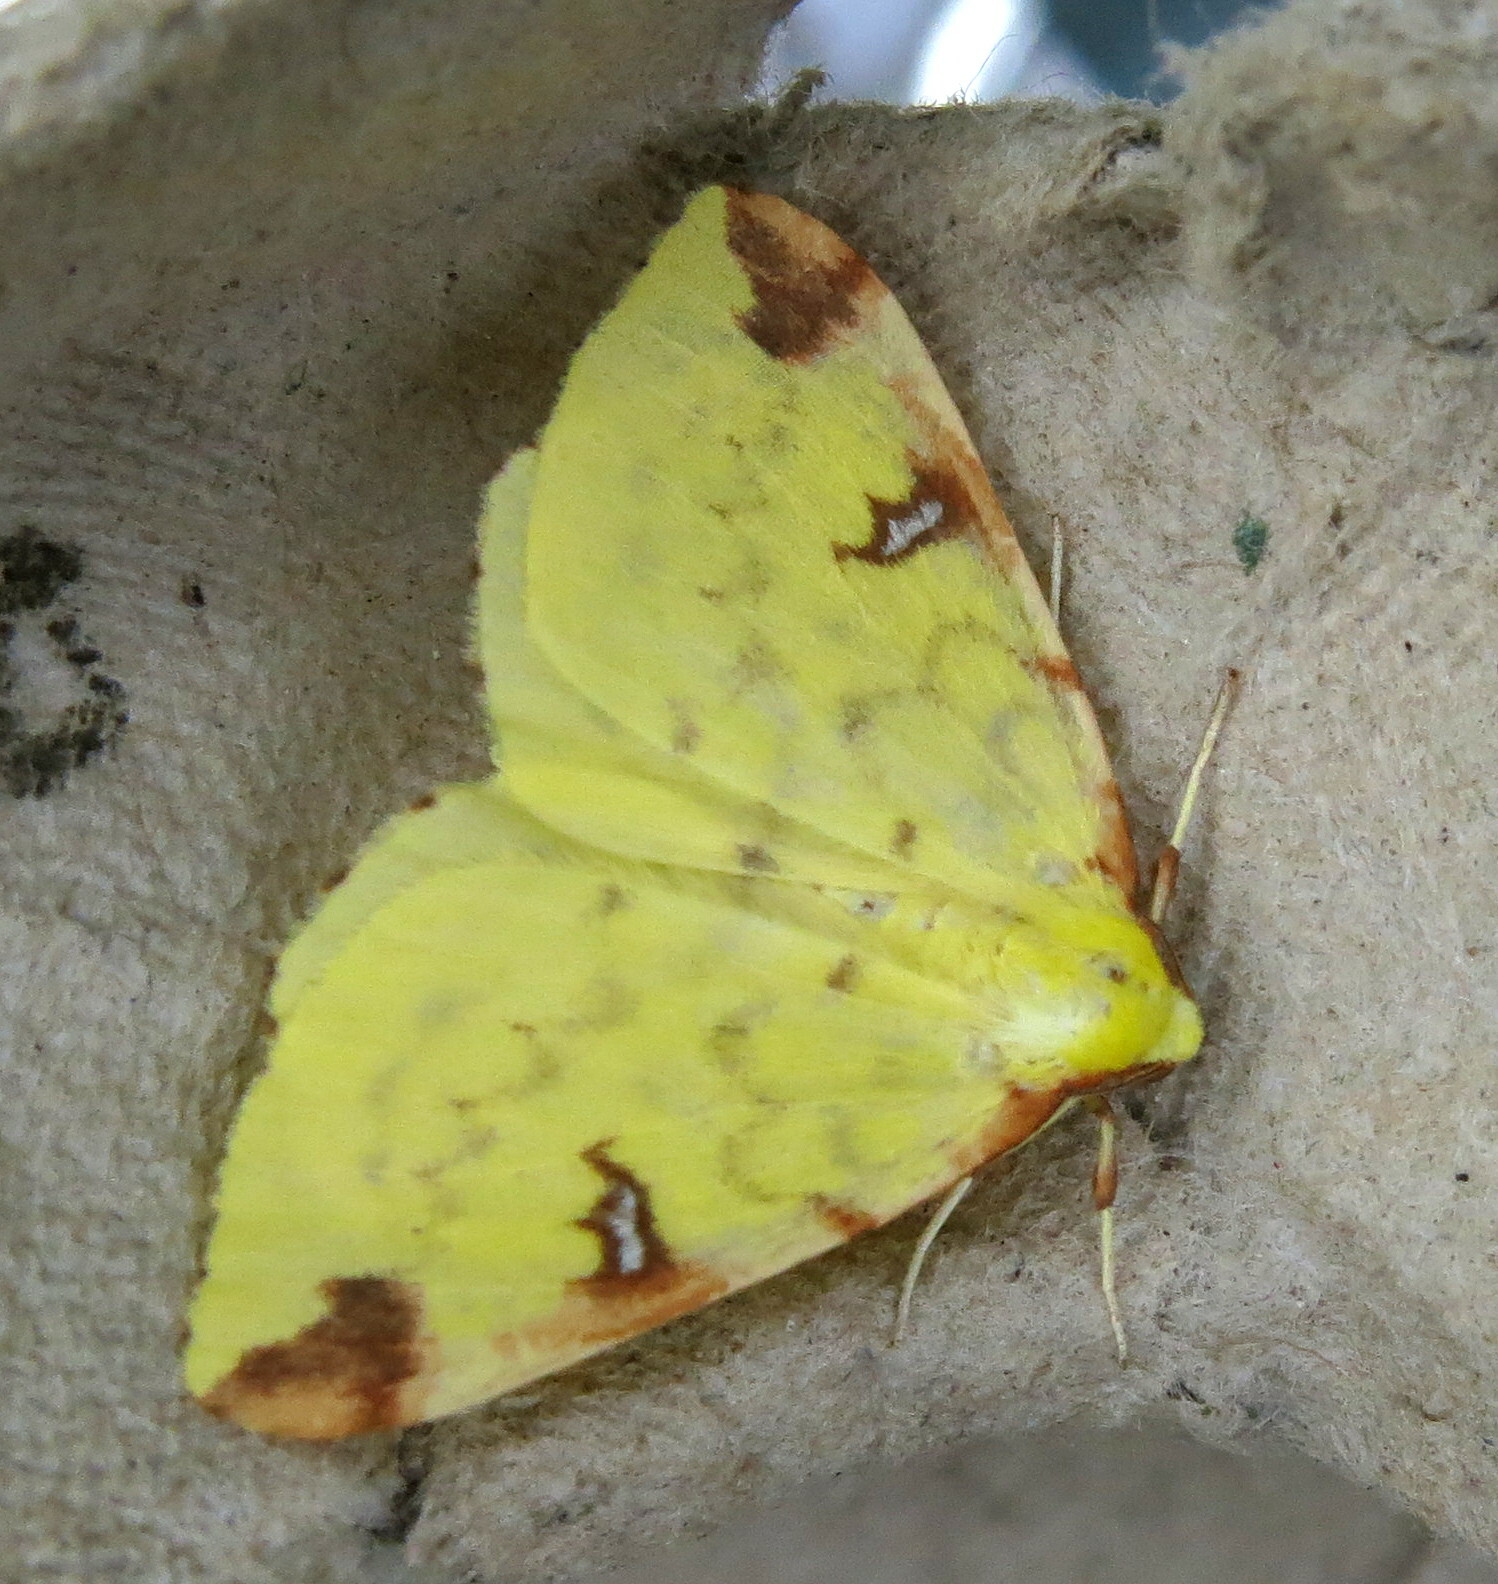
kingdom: Animalia
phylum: Arthropoda
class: Insecta
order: Lepidoptera
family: Geometridae
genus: Opisthograptis
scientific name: Opisthograptis luteolata
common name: Brimstone moth
